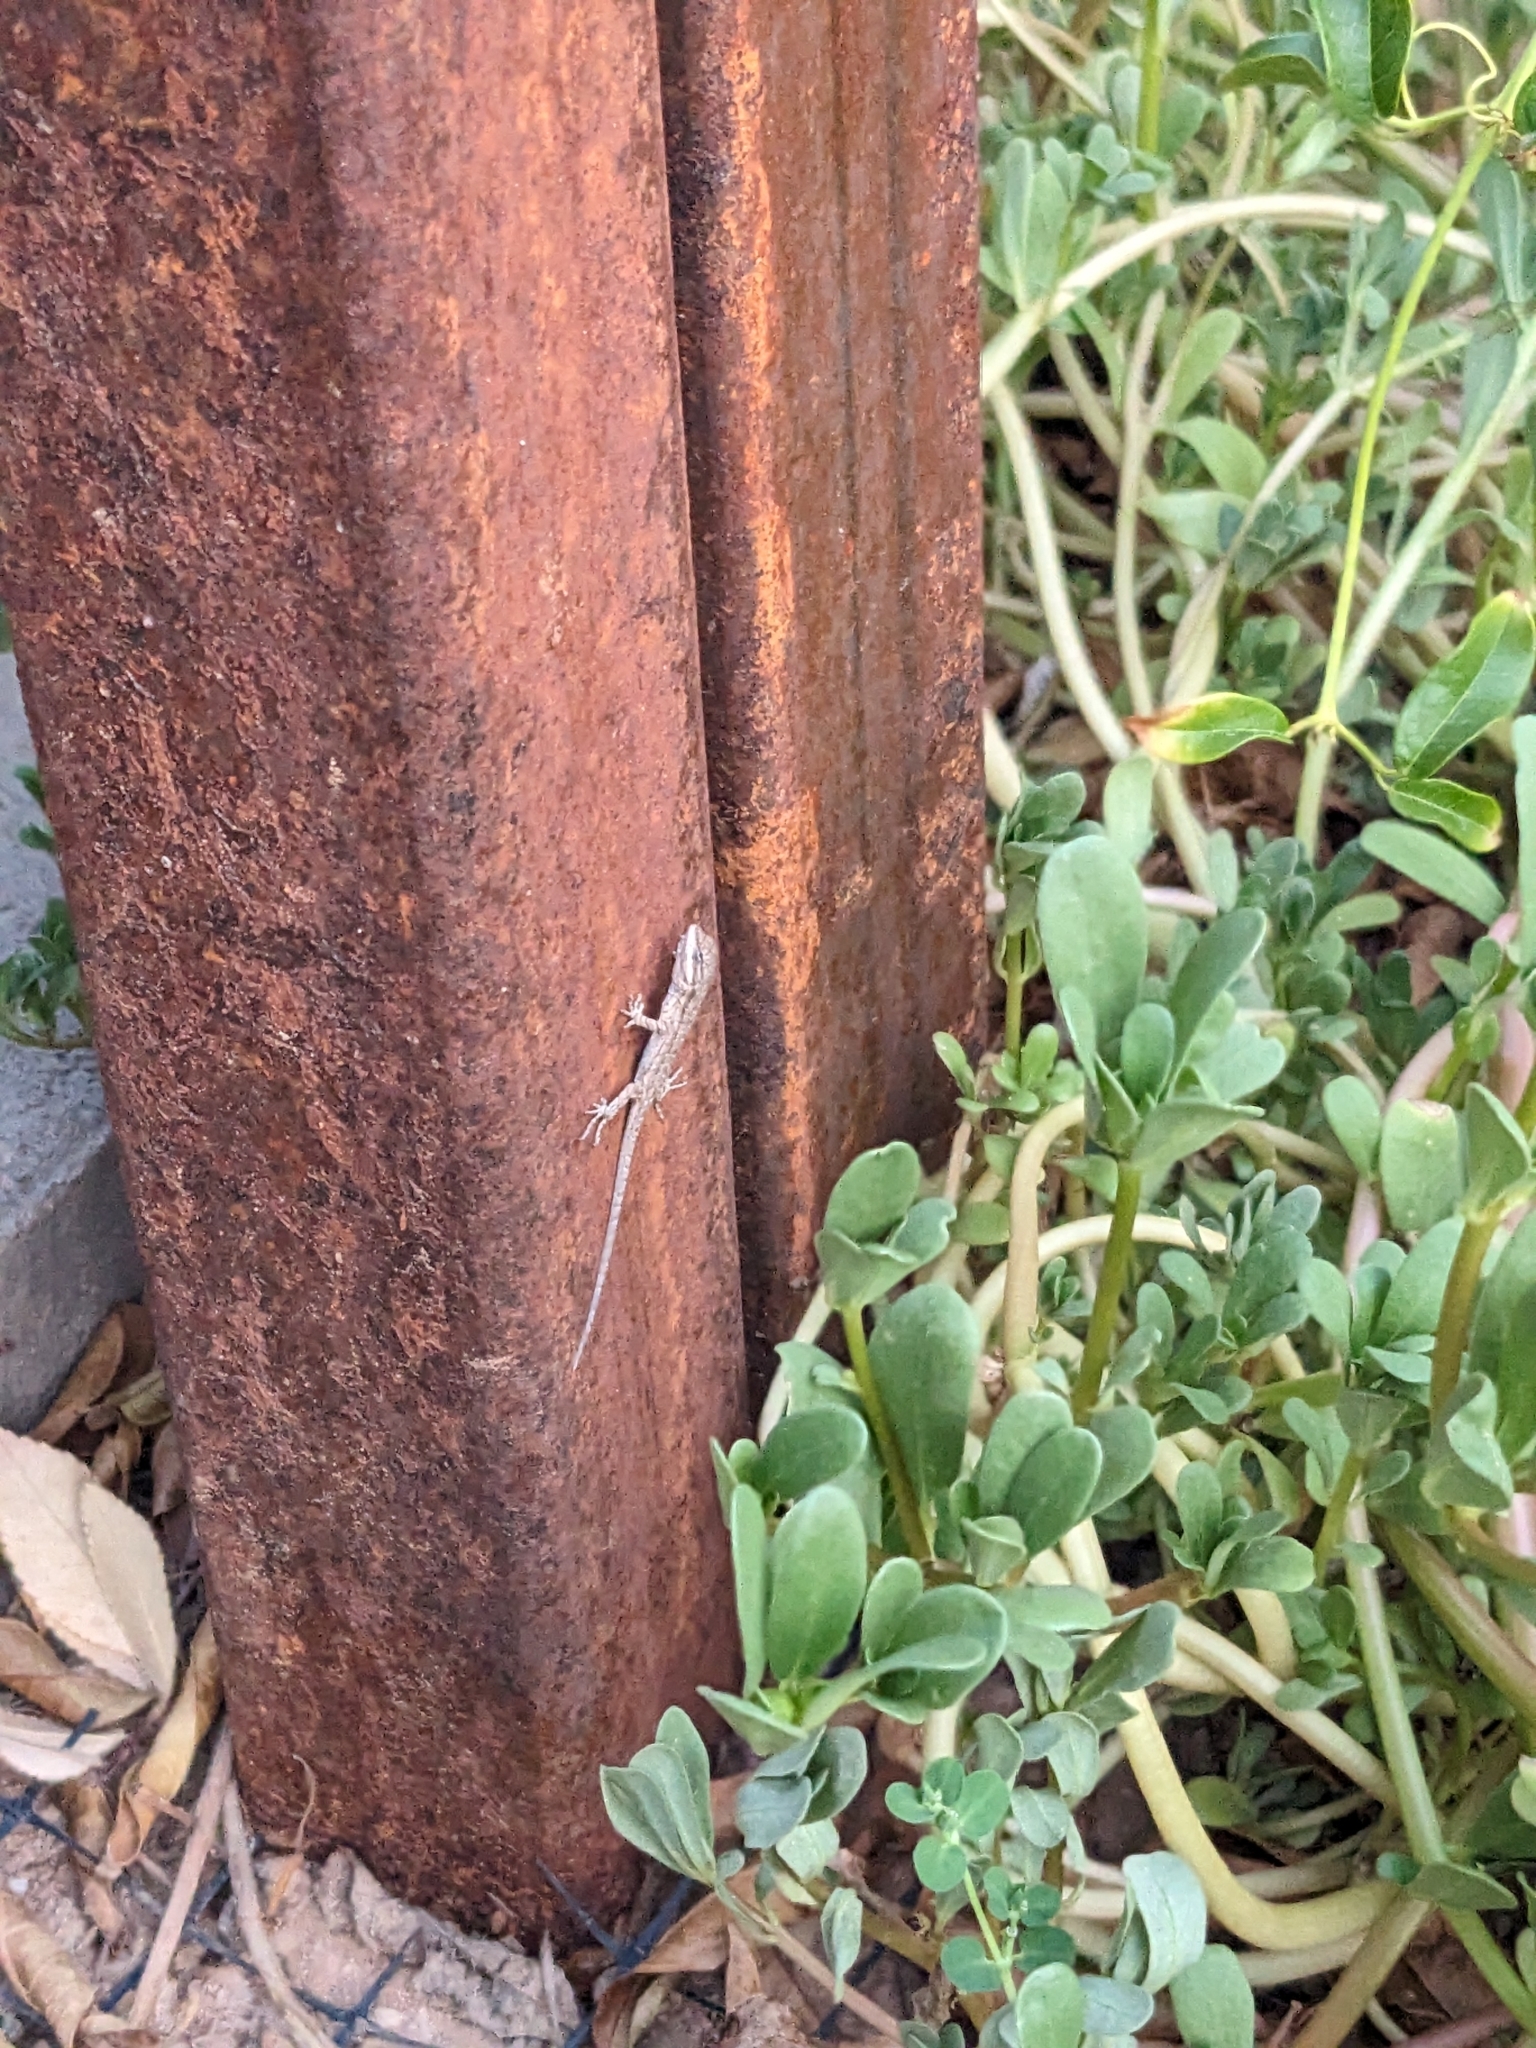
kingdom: Animalia
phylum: Chordata
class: Squamata
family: Phrynosomatidae
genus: Urosaurus
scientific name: Urosaurus ornatus
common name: Ornate tree lizard
